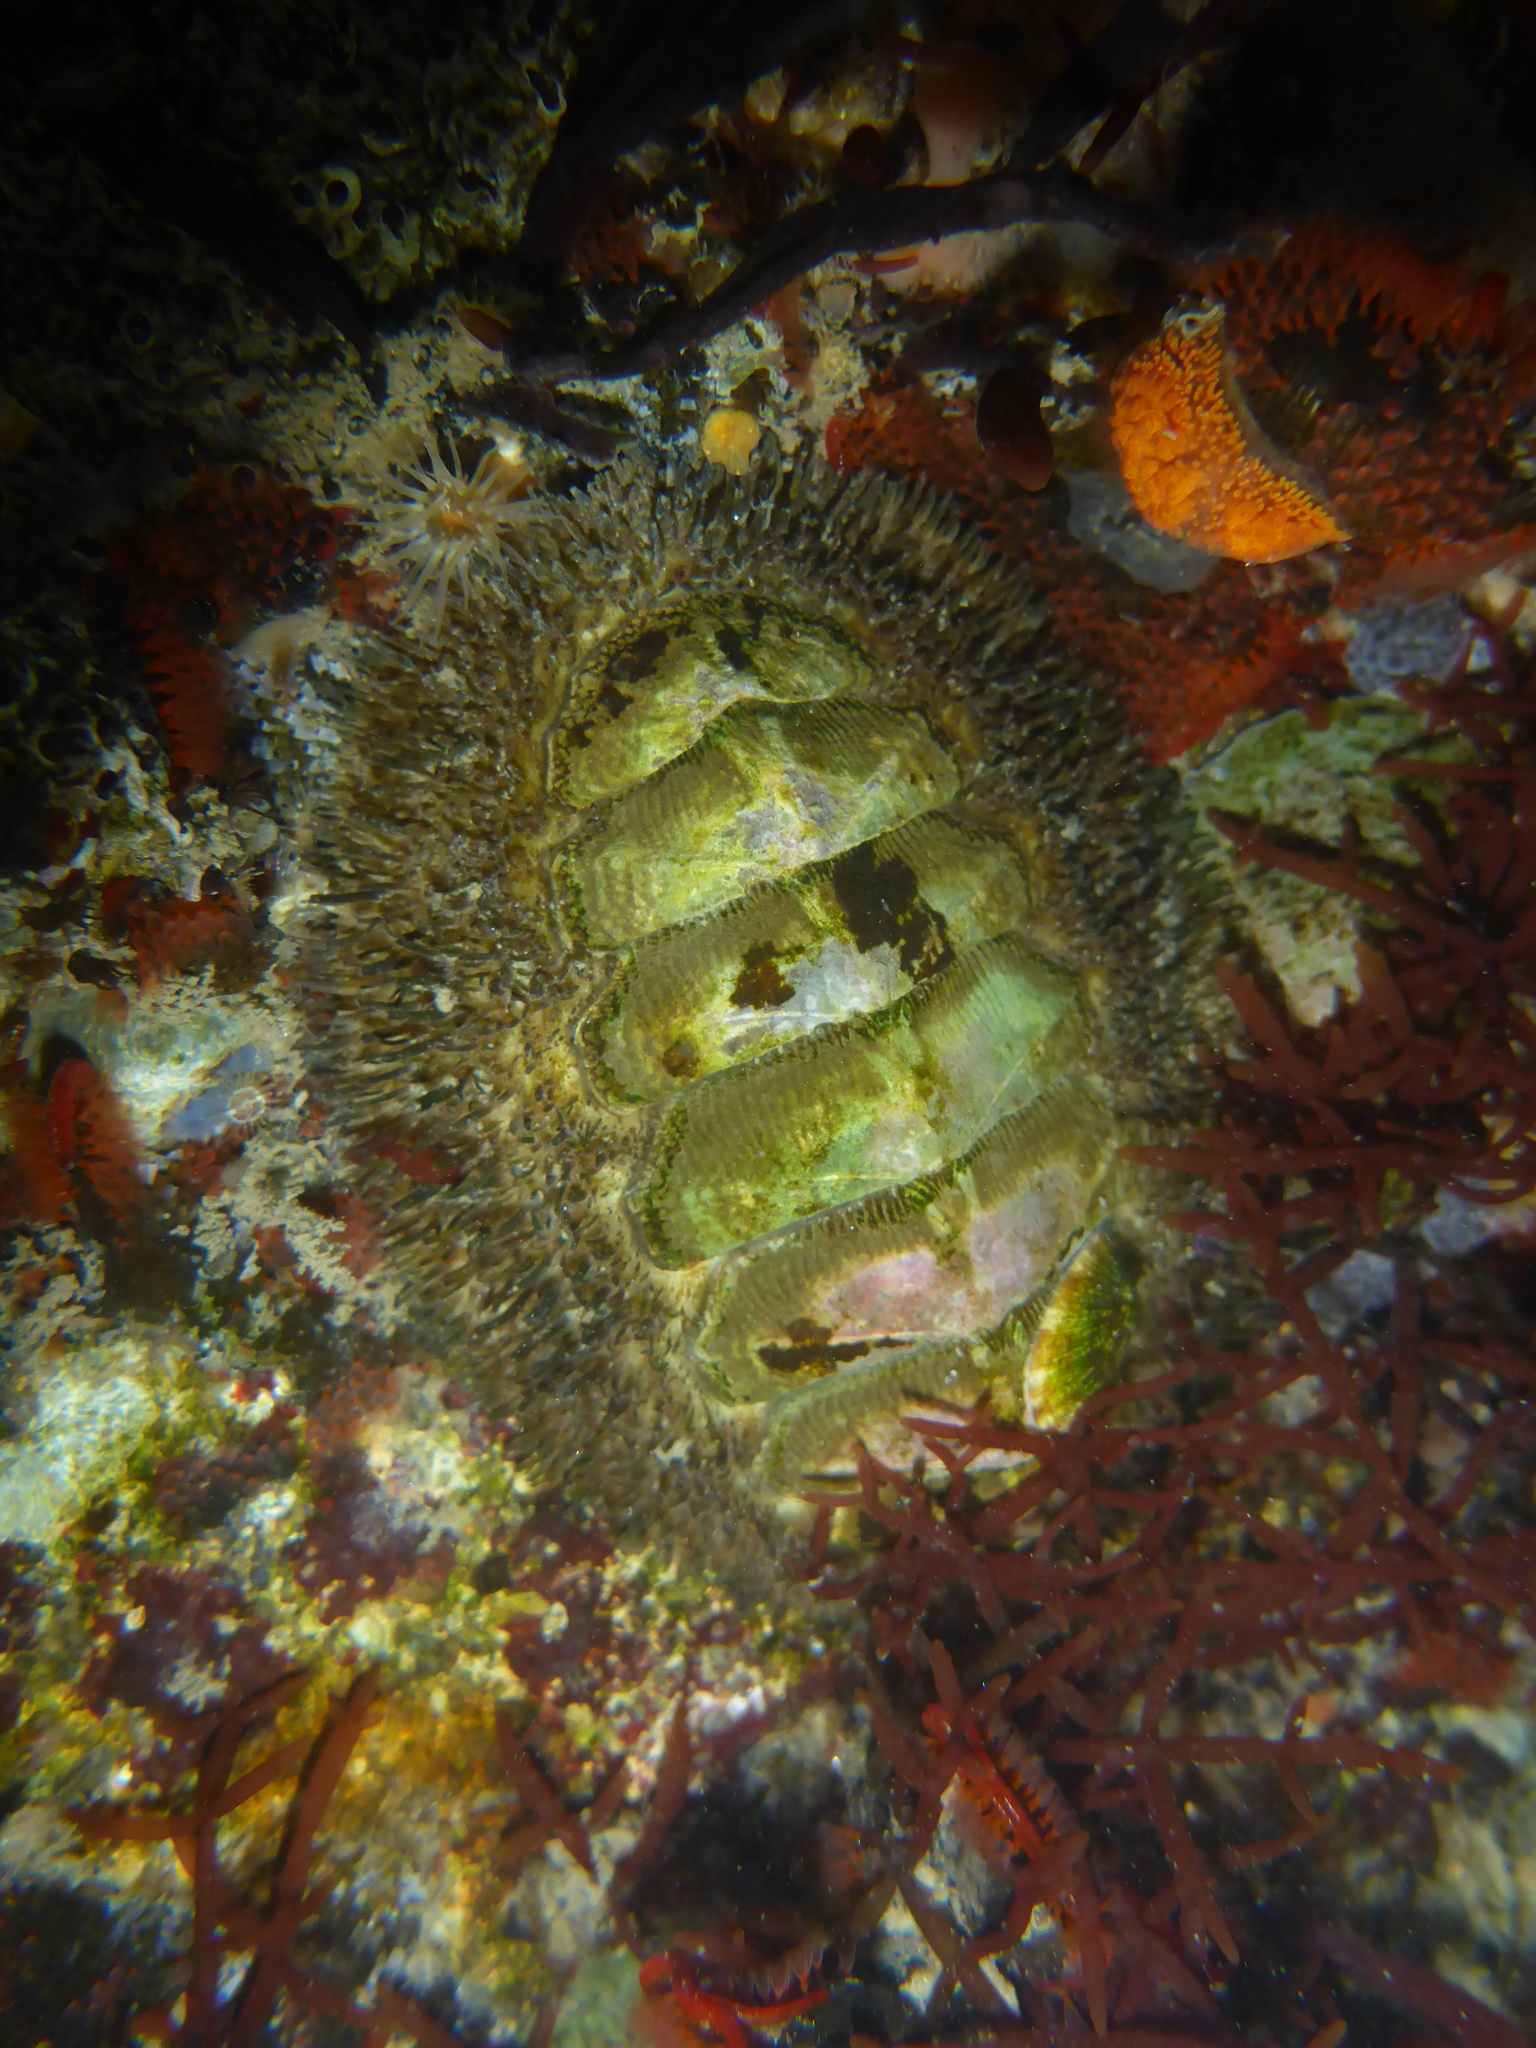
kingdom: Animalia
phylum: Mollusca
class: Polyplacophora
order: Chitonida
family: Mopaliidae
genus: Mopalia
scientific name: Mopalia muscosa
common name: Mossy chiton
